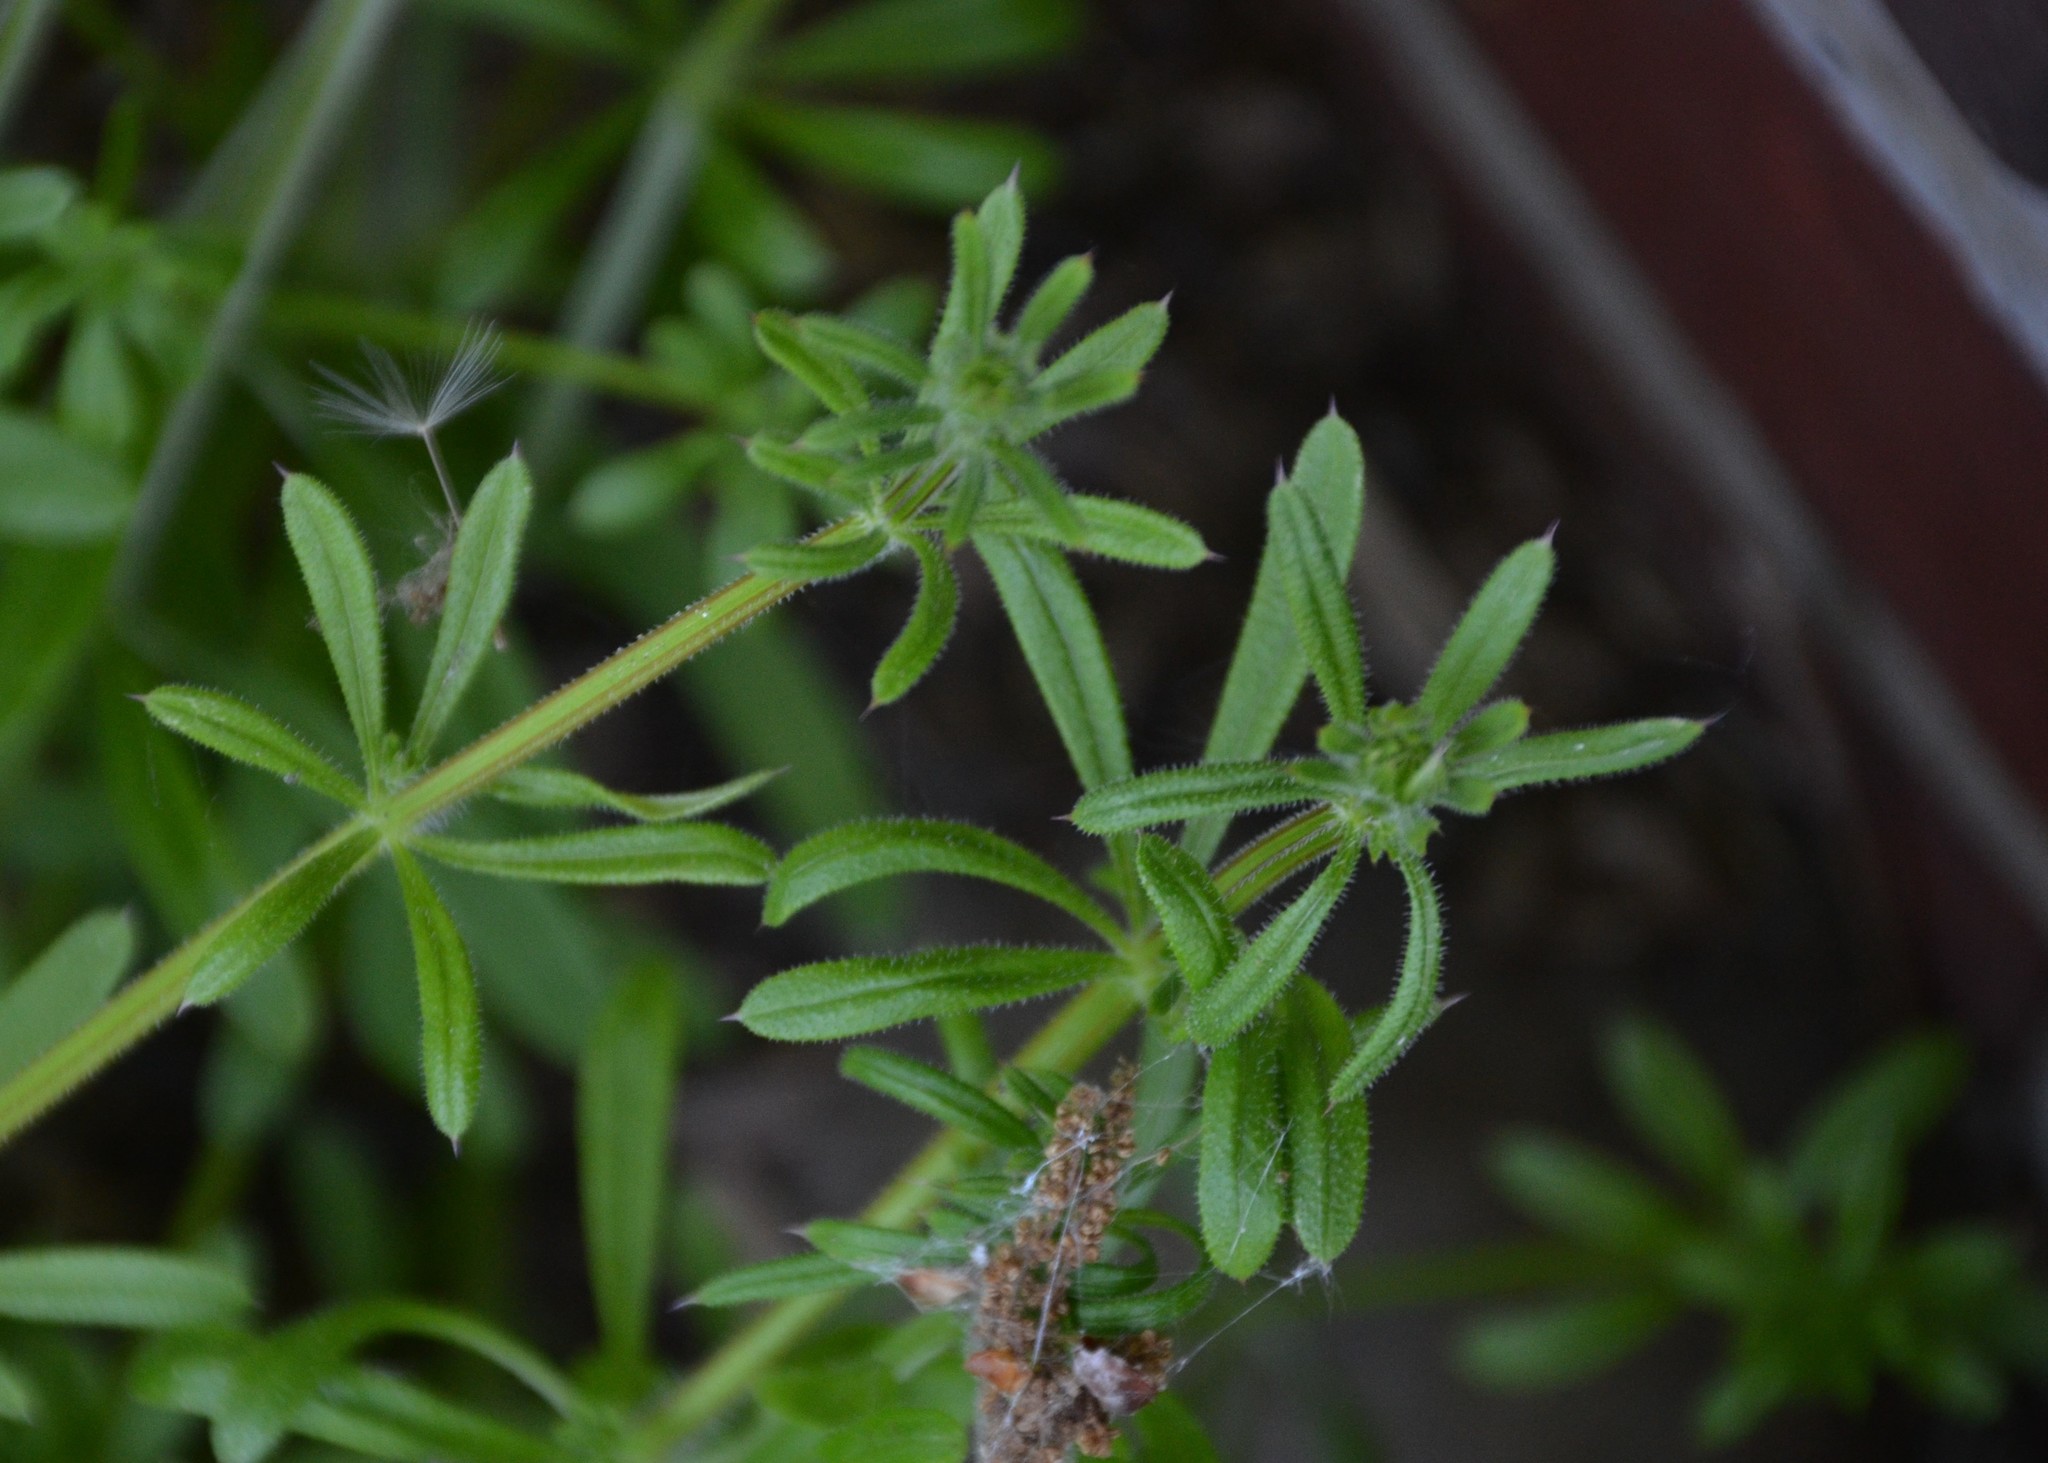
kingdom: Plantae
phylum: Tracheophyta
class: Magnoliopsida
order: Gentianales
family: Rubiaceae
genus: Galium
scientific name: Galium aparine
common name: Cleavers
